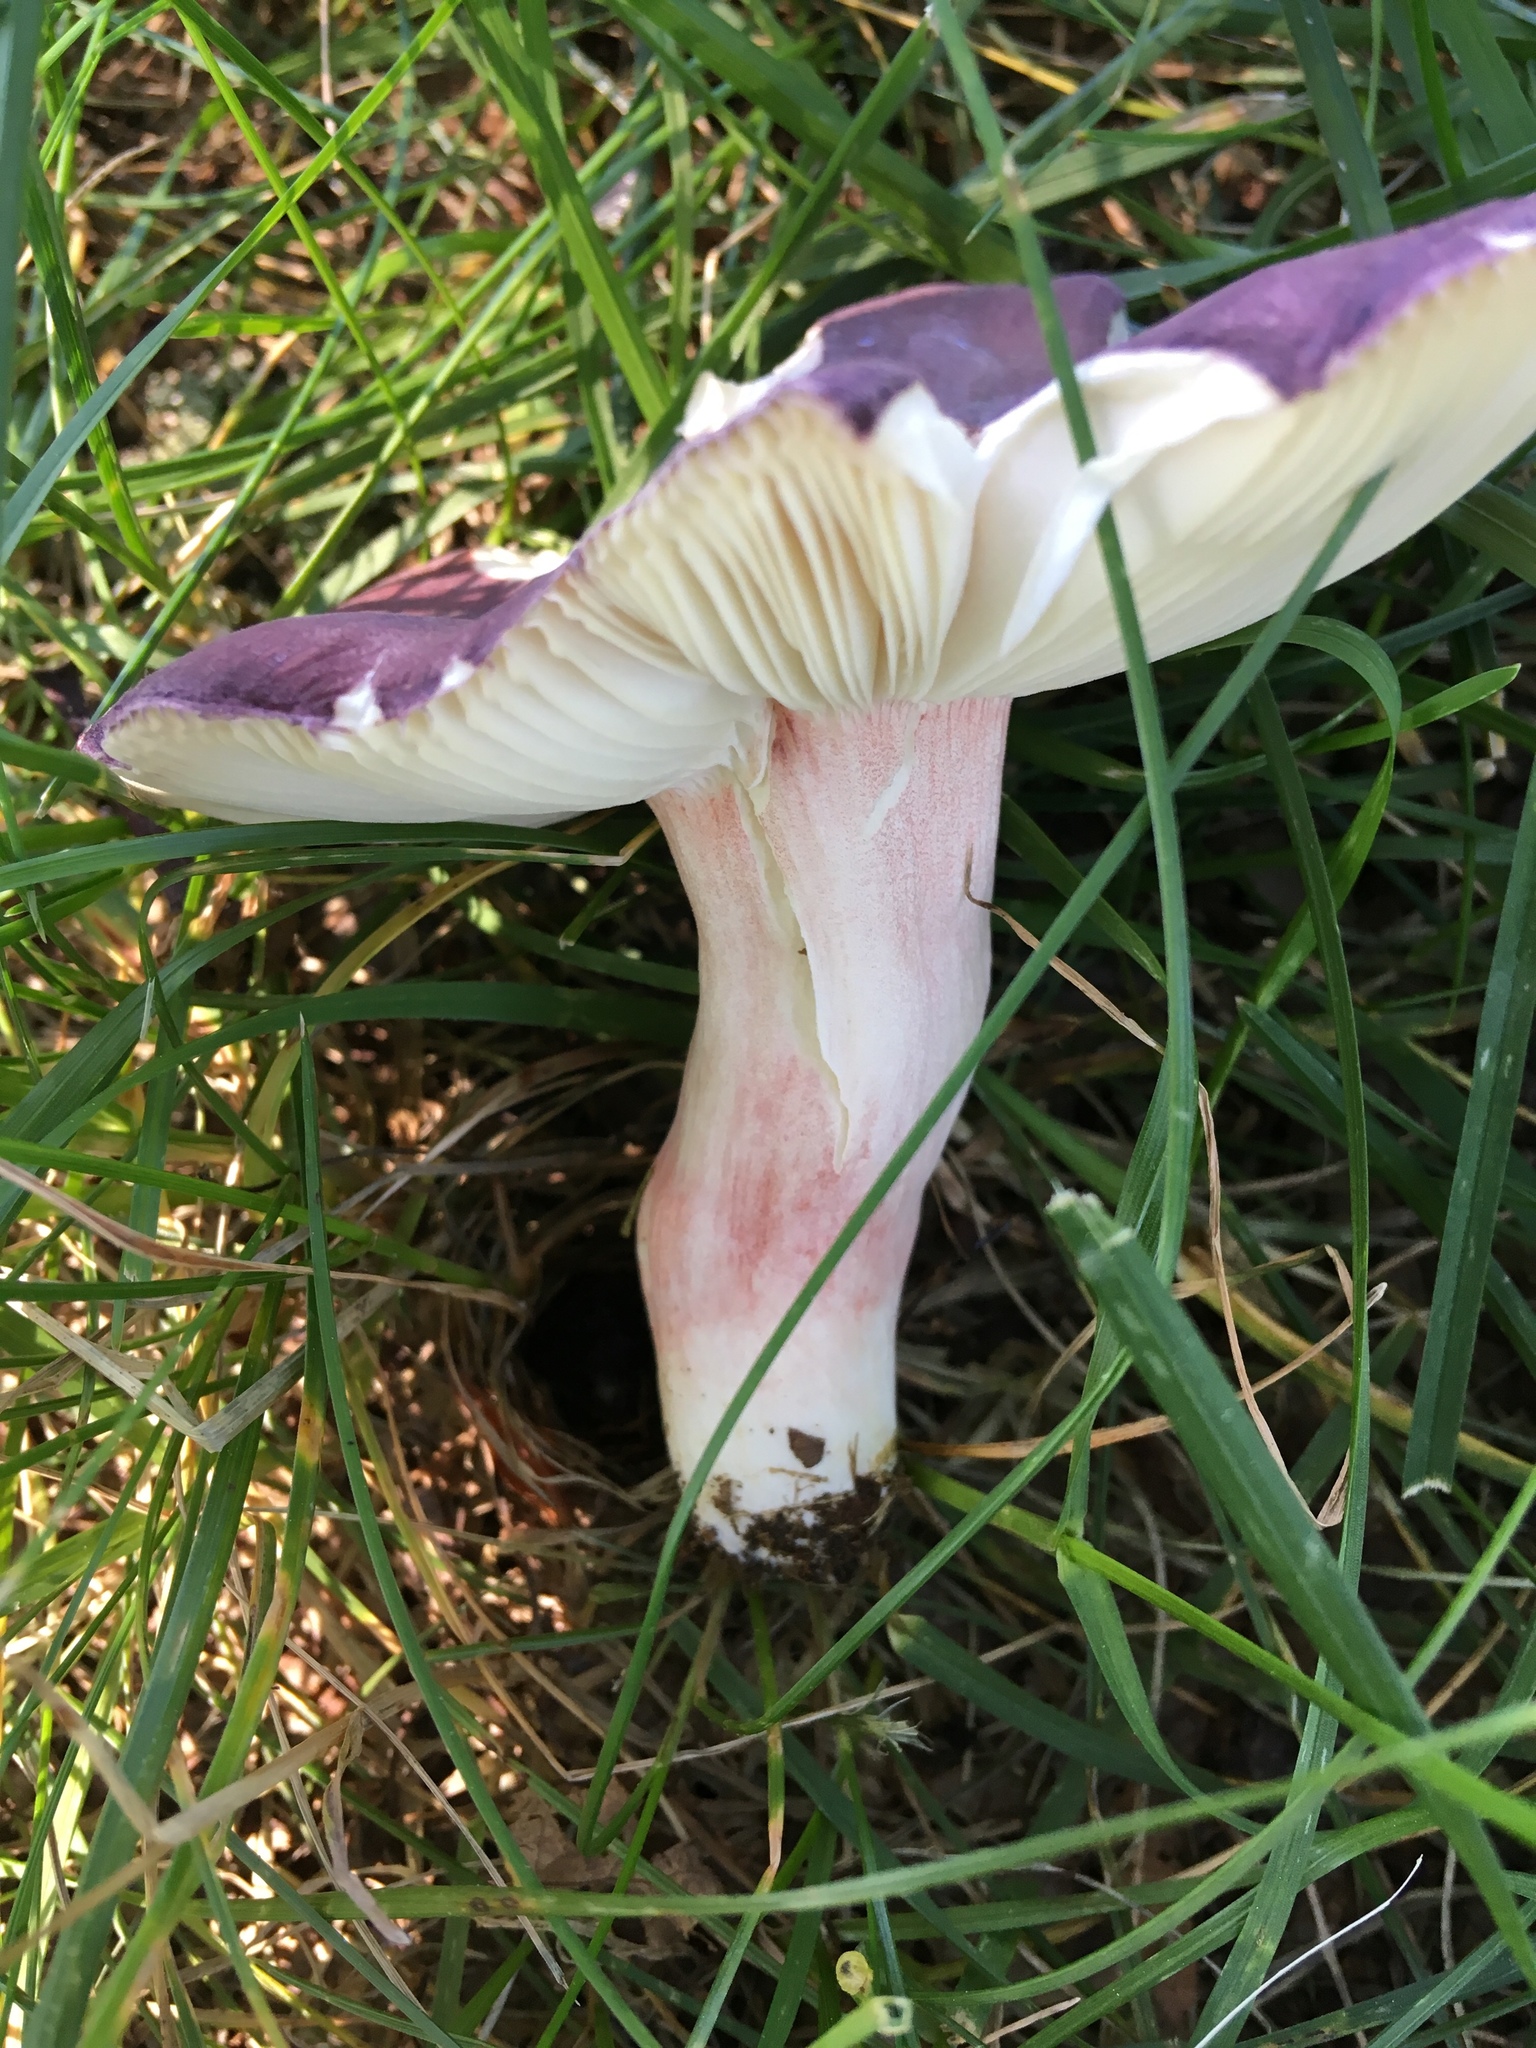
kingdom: Fungi
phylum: Basidiomycota
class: Agaricomycetes
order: Russulales
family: Russulaceae
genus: Russula
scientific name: Russula mariae
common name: Purple-bloom russula
